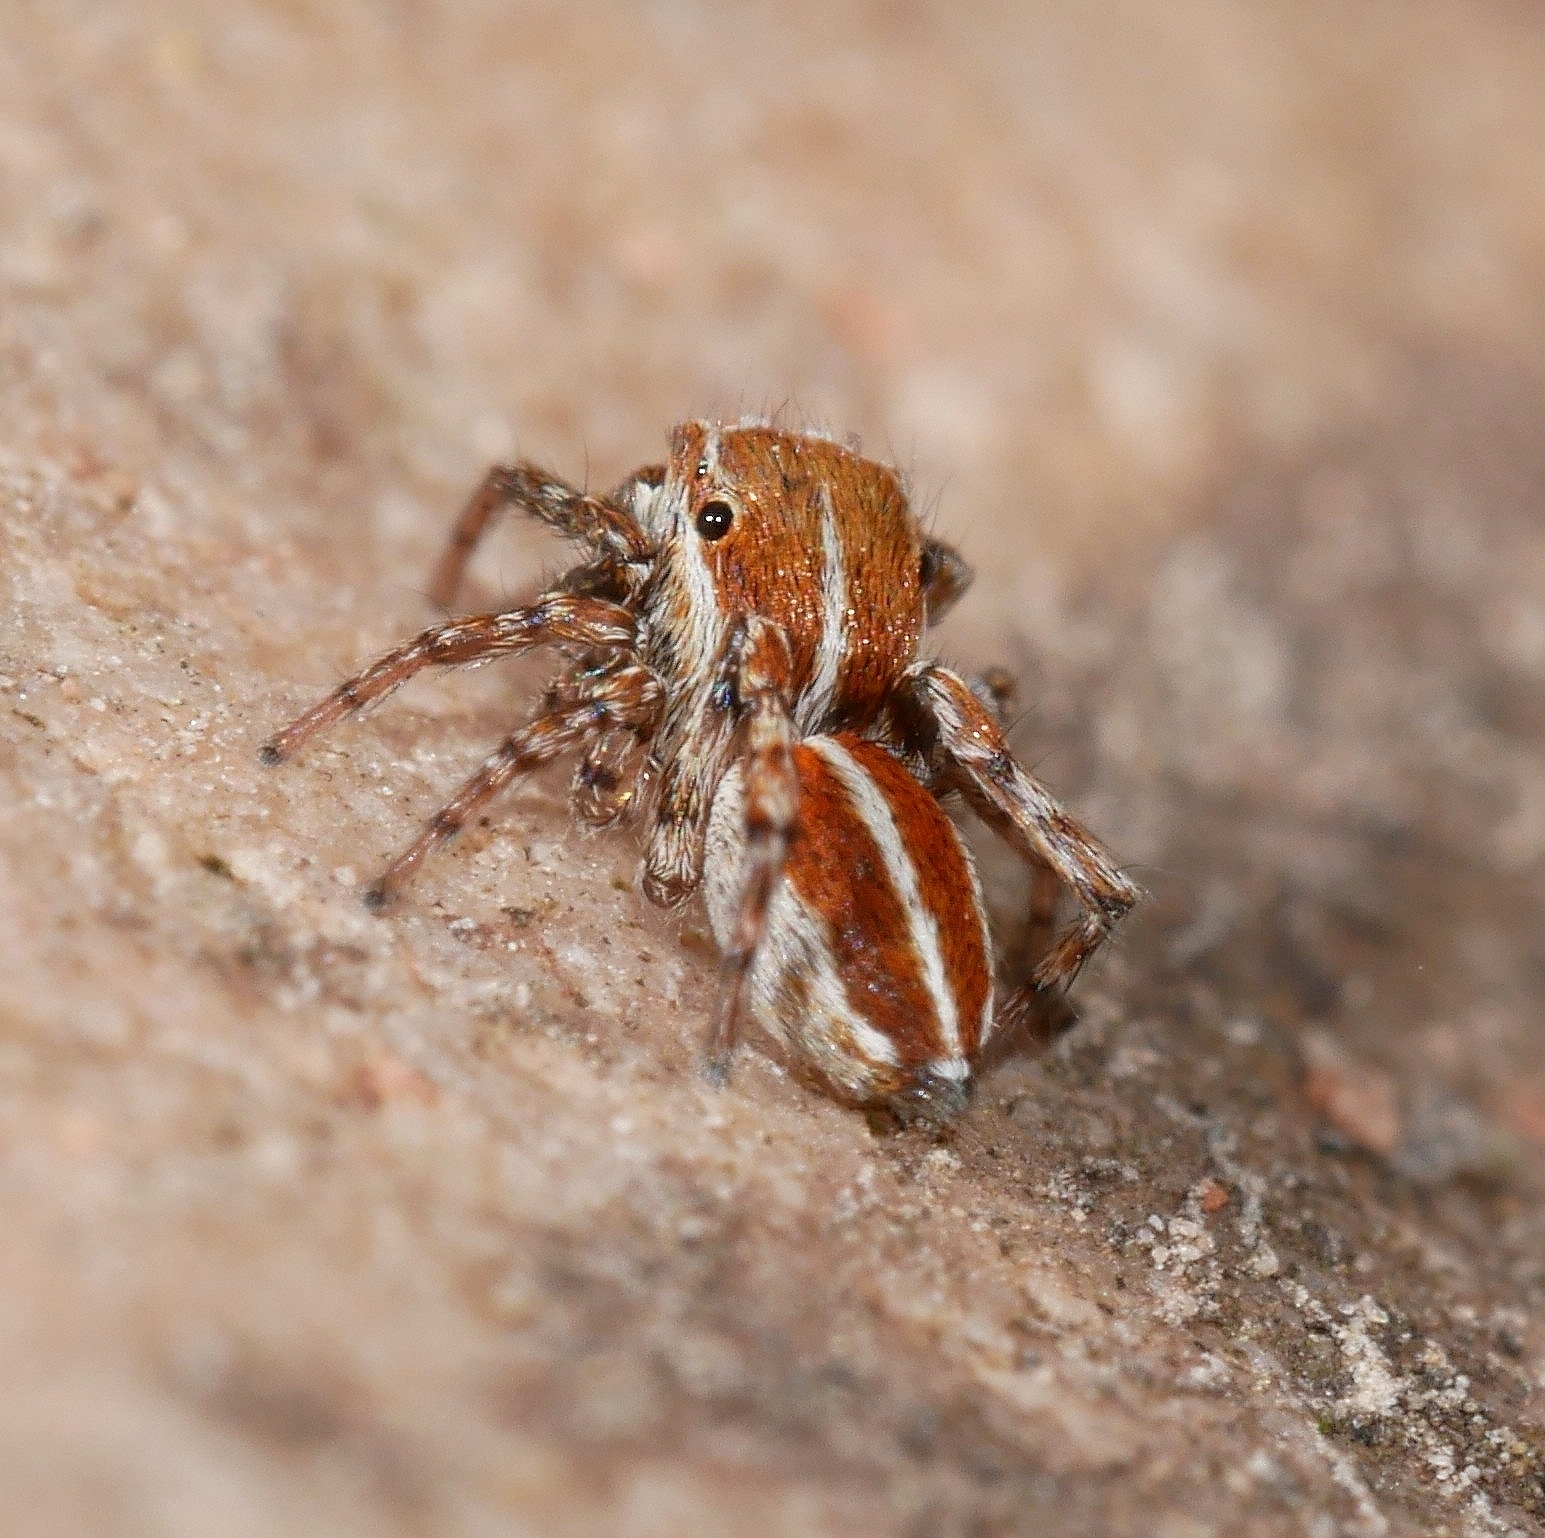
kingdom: Animalia
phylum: Arthropoda
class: Arachnida
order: Araneae
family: Salticidae
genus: Attinella
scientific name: Attinella dorsata
